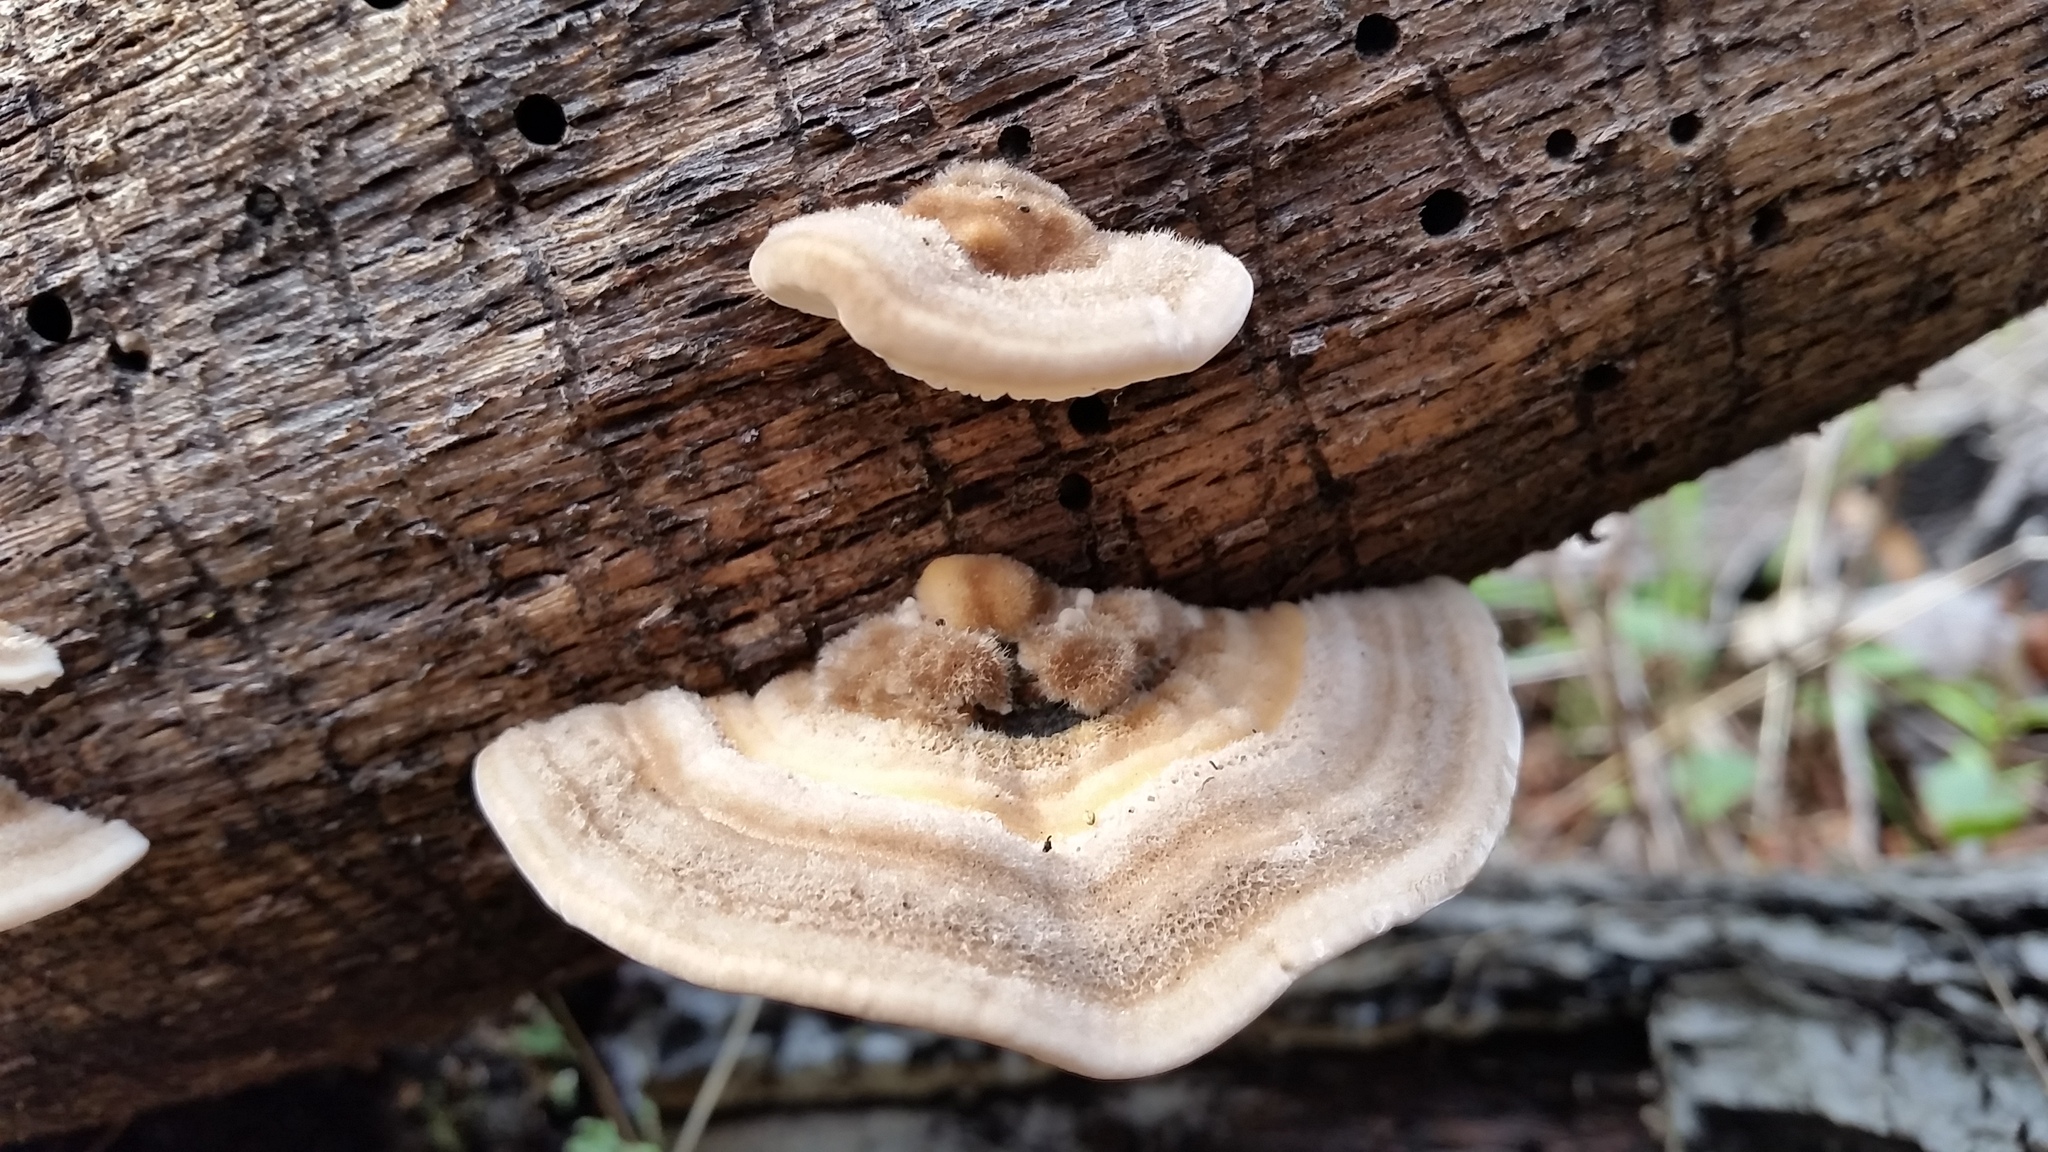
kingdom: Fungi
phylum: Basidiomycota
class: Agaricomycetes
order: Polyporales
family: Polyporaceae
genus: Lenzites
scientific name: Lenzites betulinus
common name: Birch mazegill
